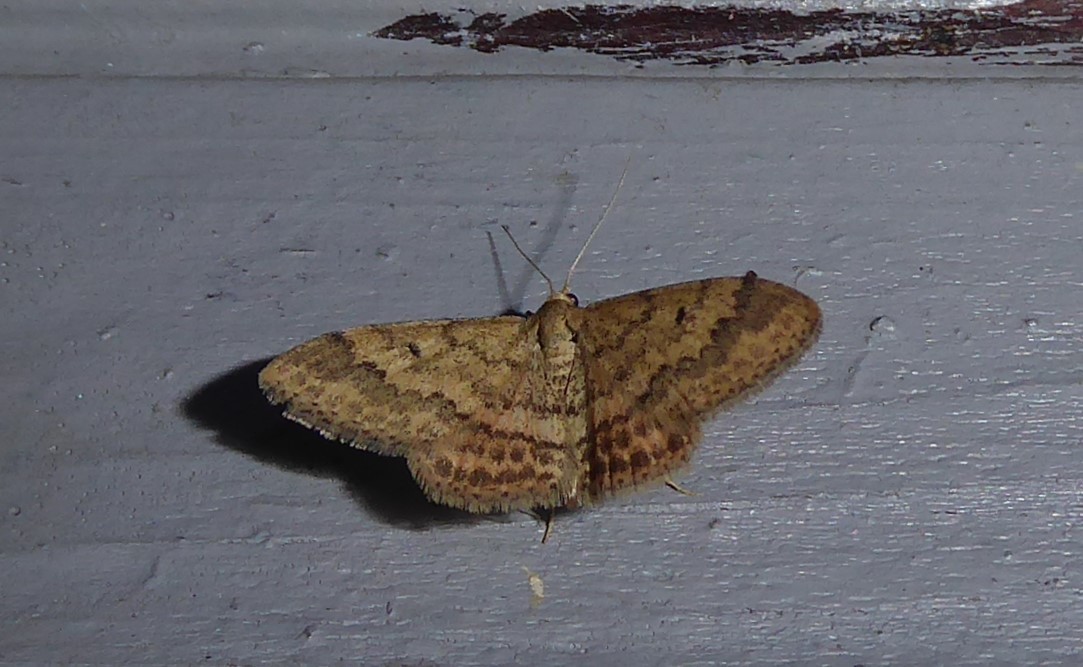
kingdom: Animalia
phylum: Arthropoda
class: Insecta
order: Lepidoptera
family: Geometridae
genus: Scopula
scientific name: Scopula rubraria
